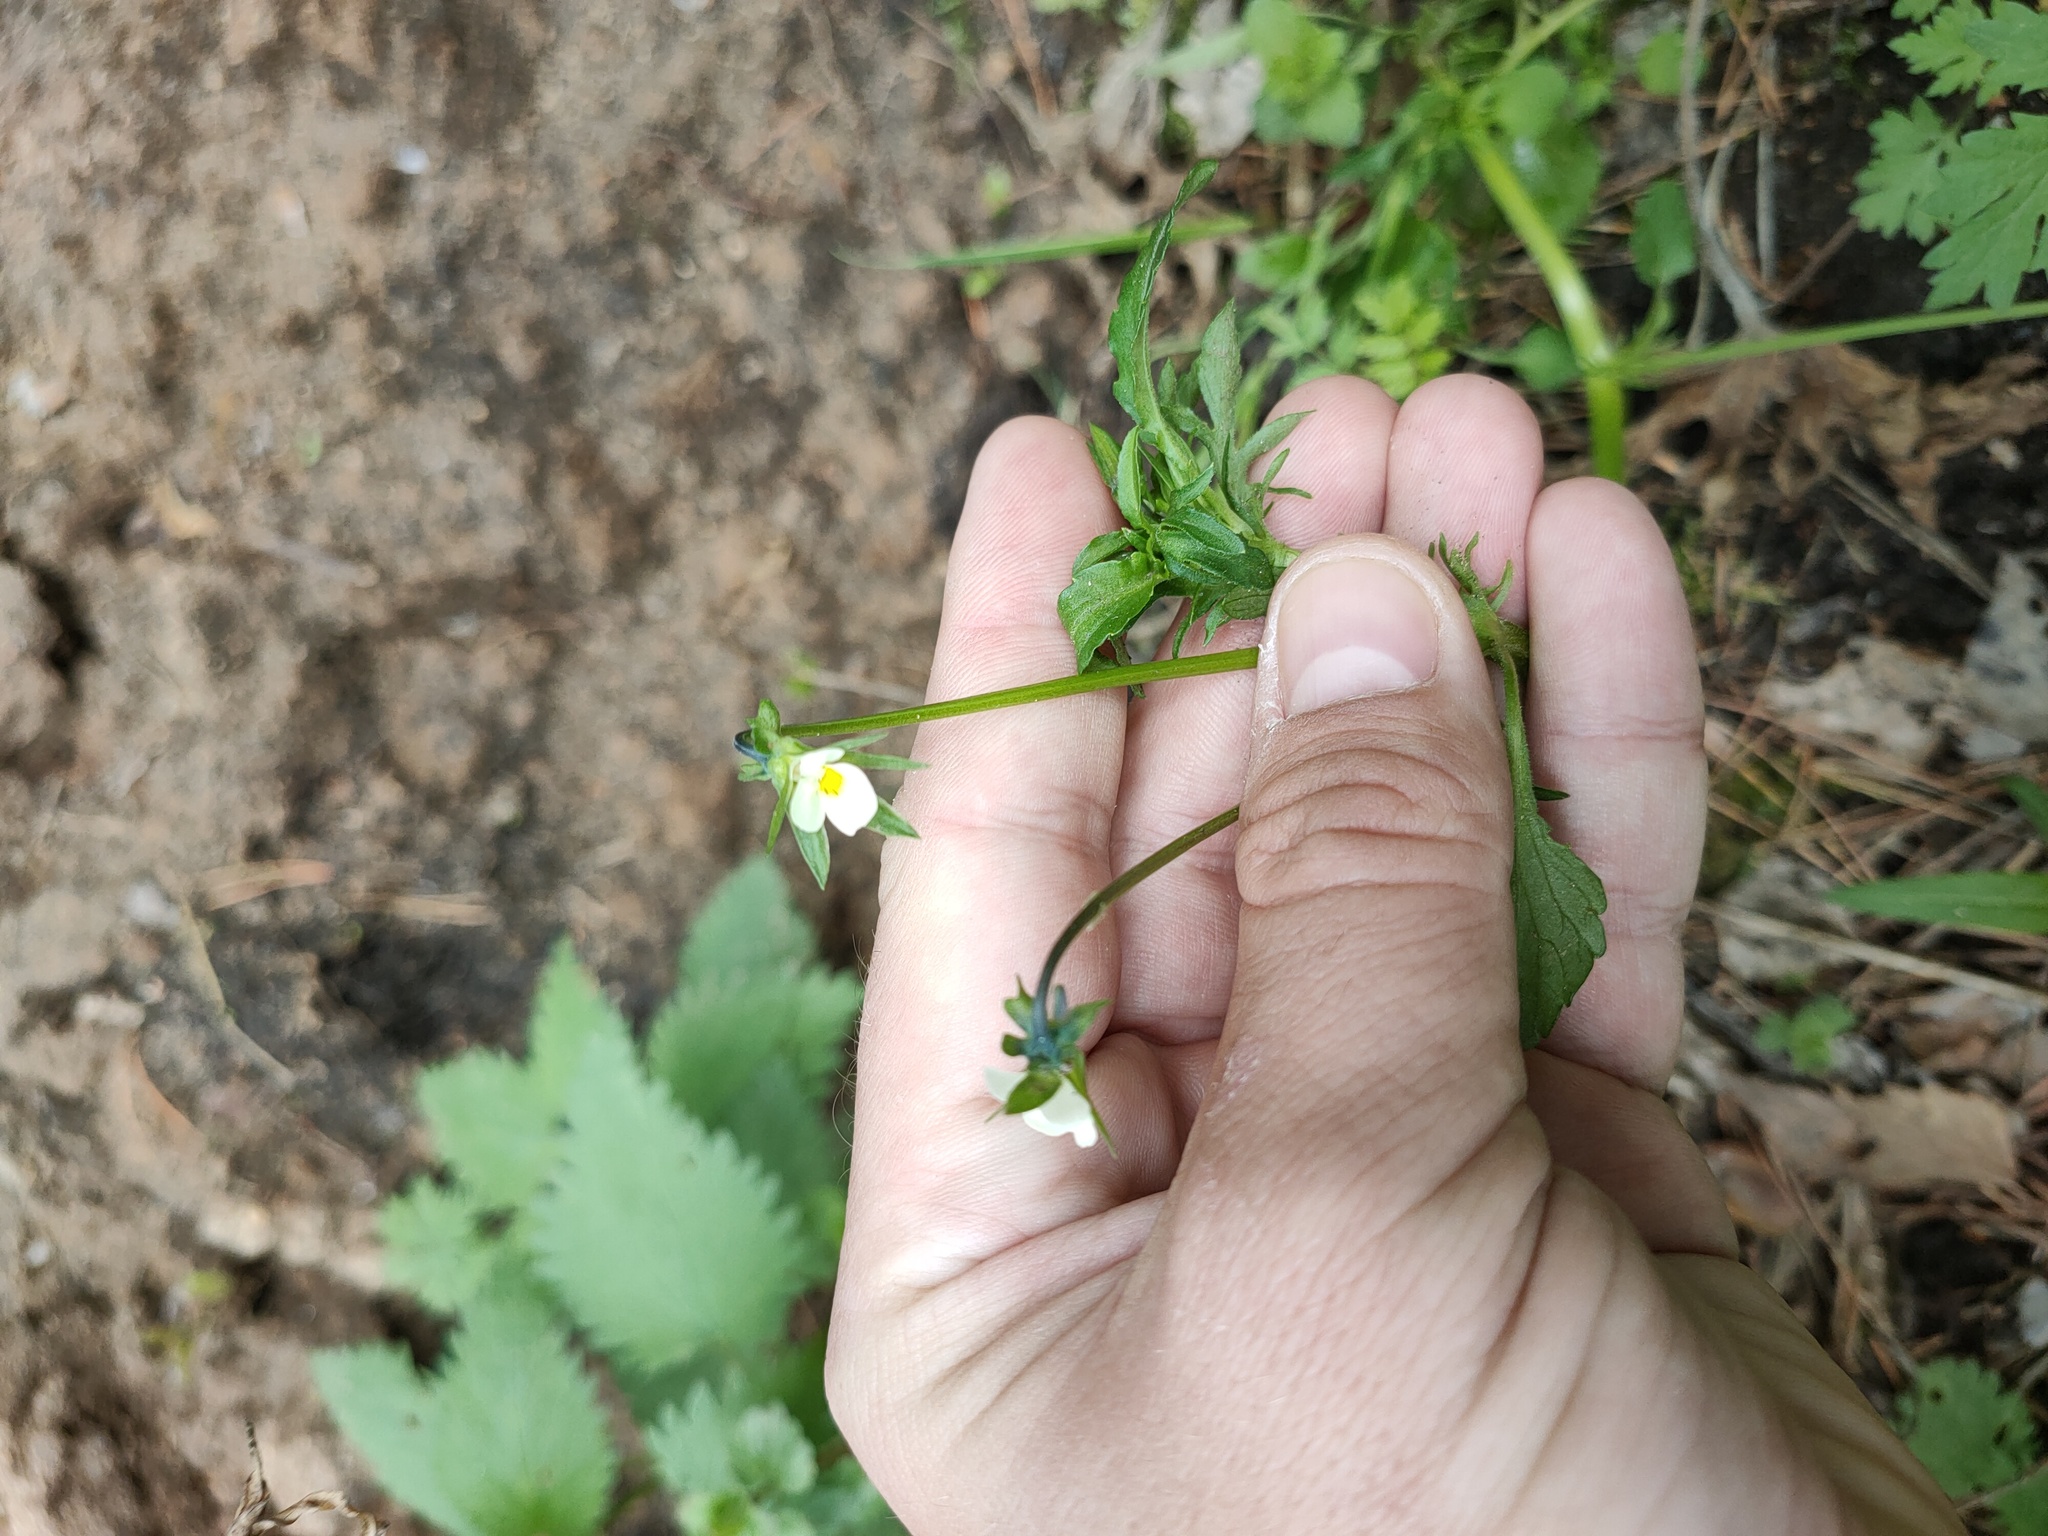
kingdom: Plantae
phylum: Tracheophyta
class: Magnoliopsida
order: Malpighiales
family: Violaceae
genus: Viola
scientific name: Viola arvensis
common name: Field pansy
